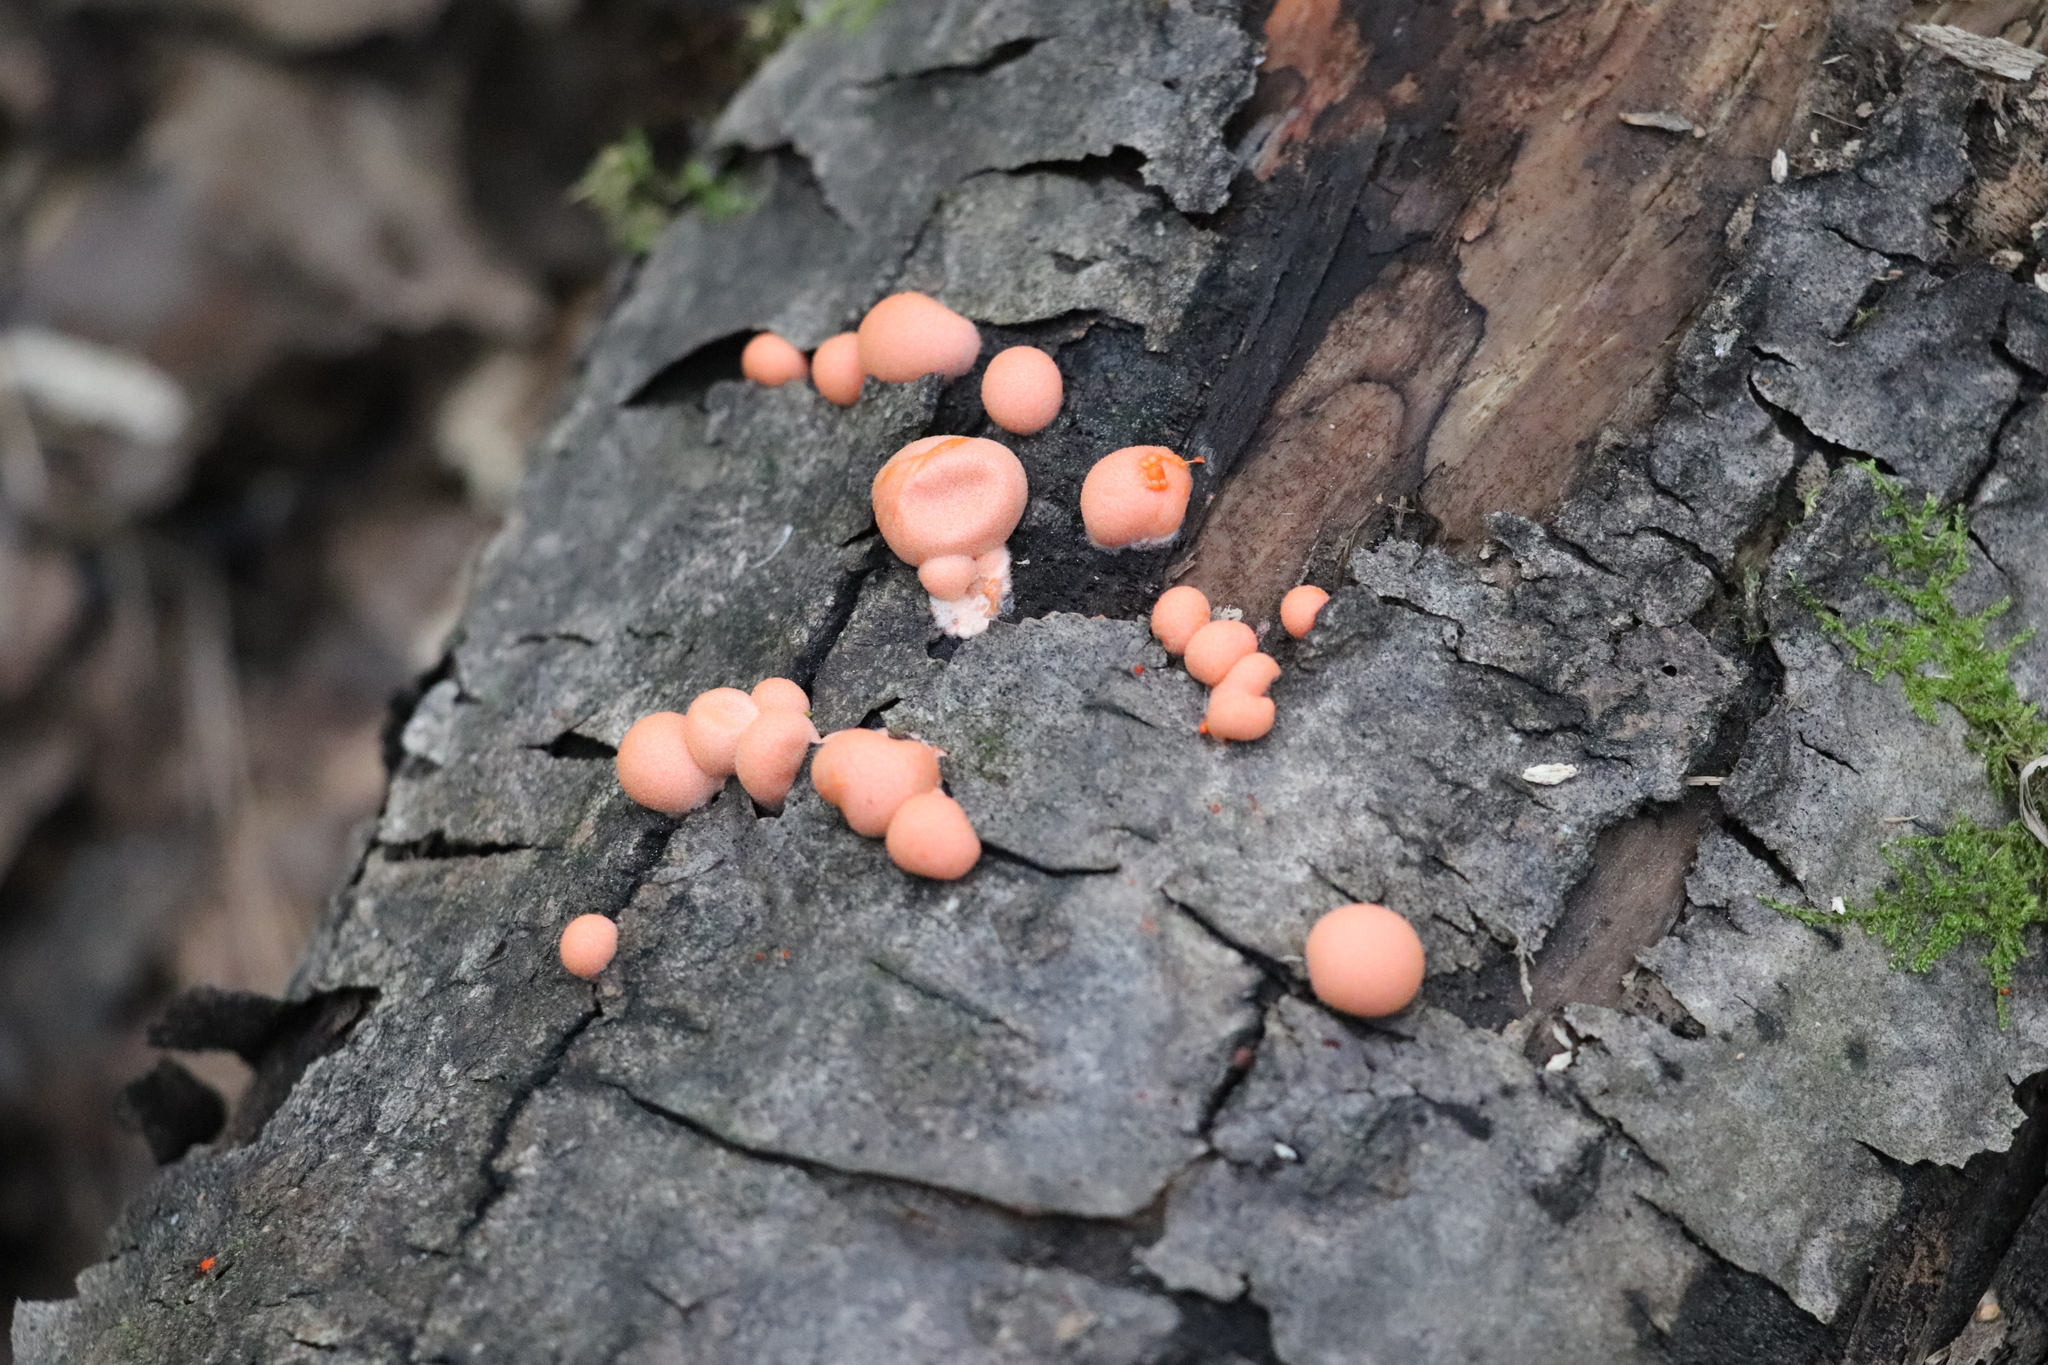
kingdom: Protozoa
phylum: Mycetozoa
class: Myxomycetes
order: Cribrariales
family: Tubiferaceae
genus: Lycogala
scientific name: Lycogala epidendrum
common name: Wolf's milk
